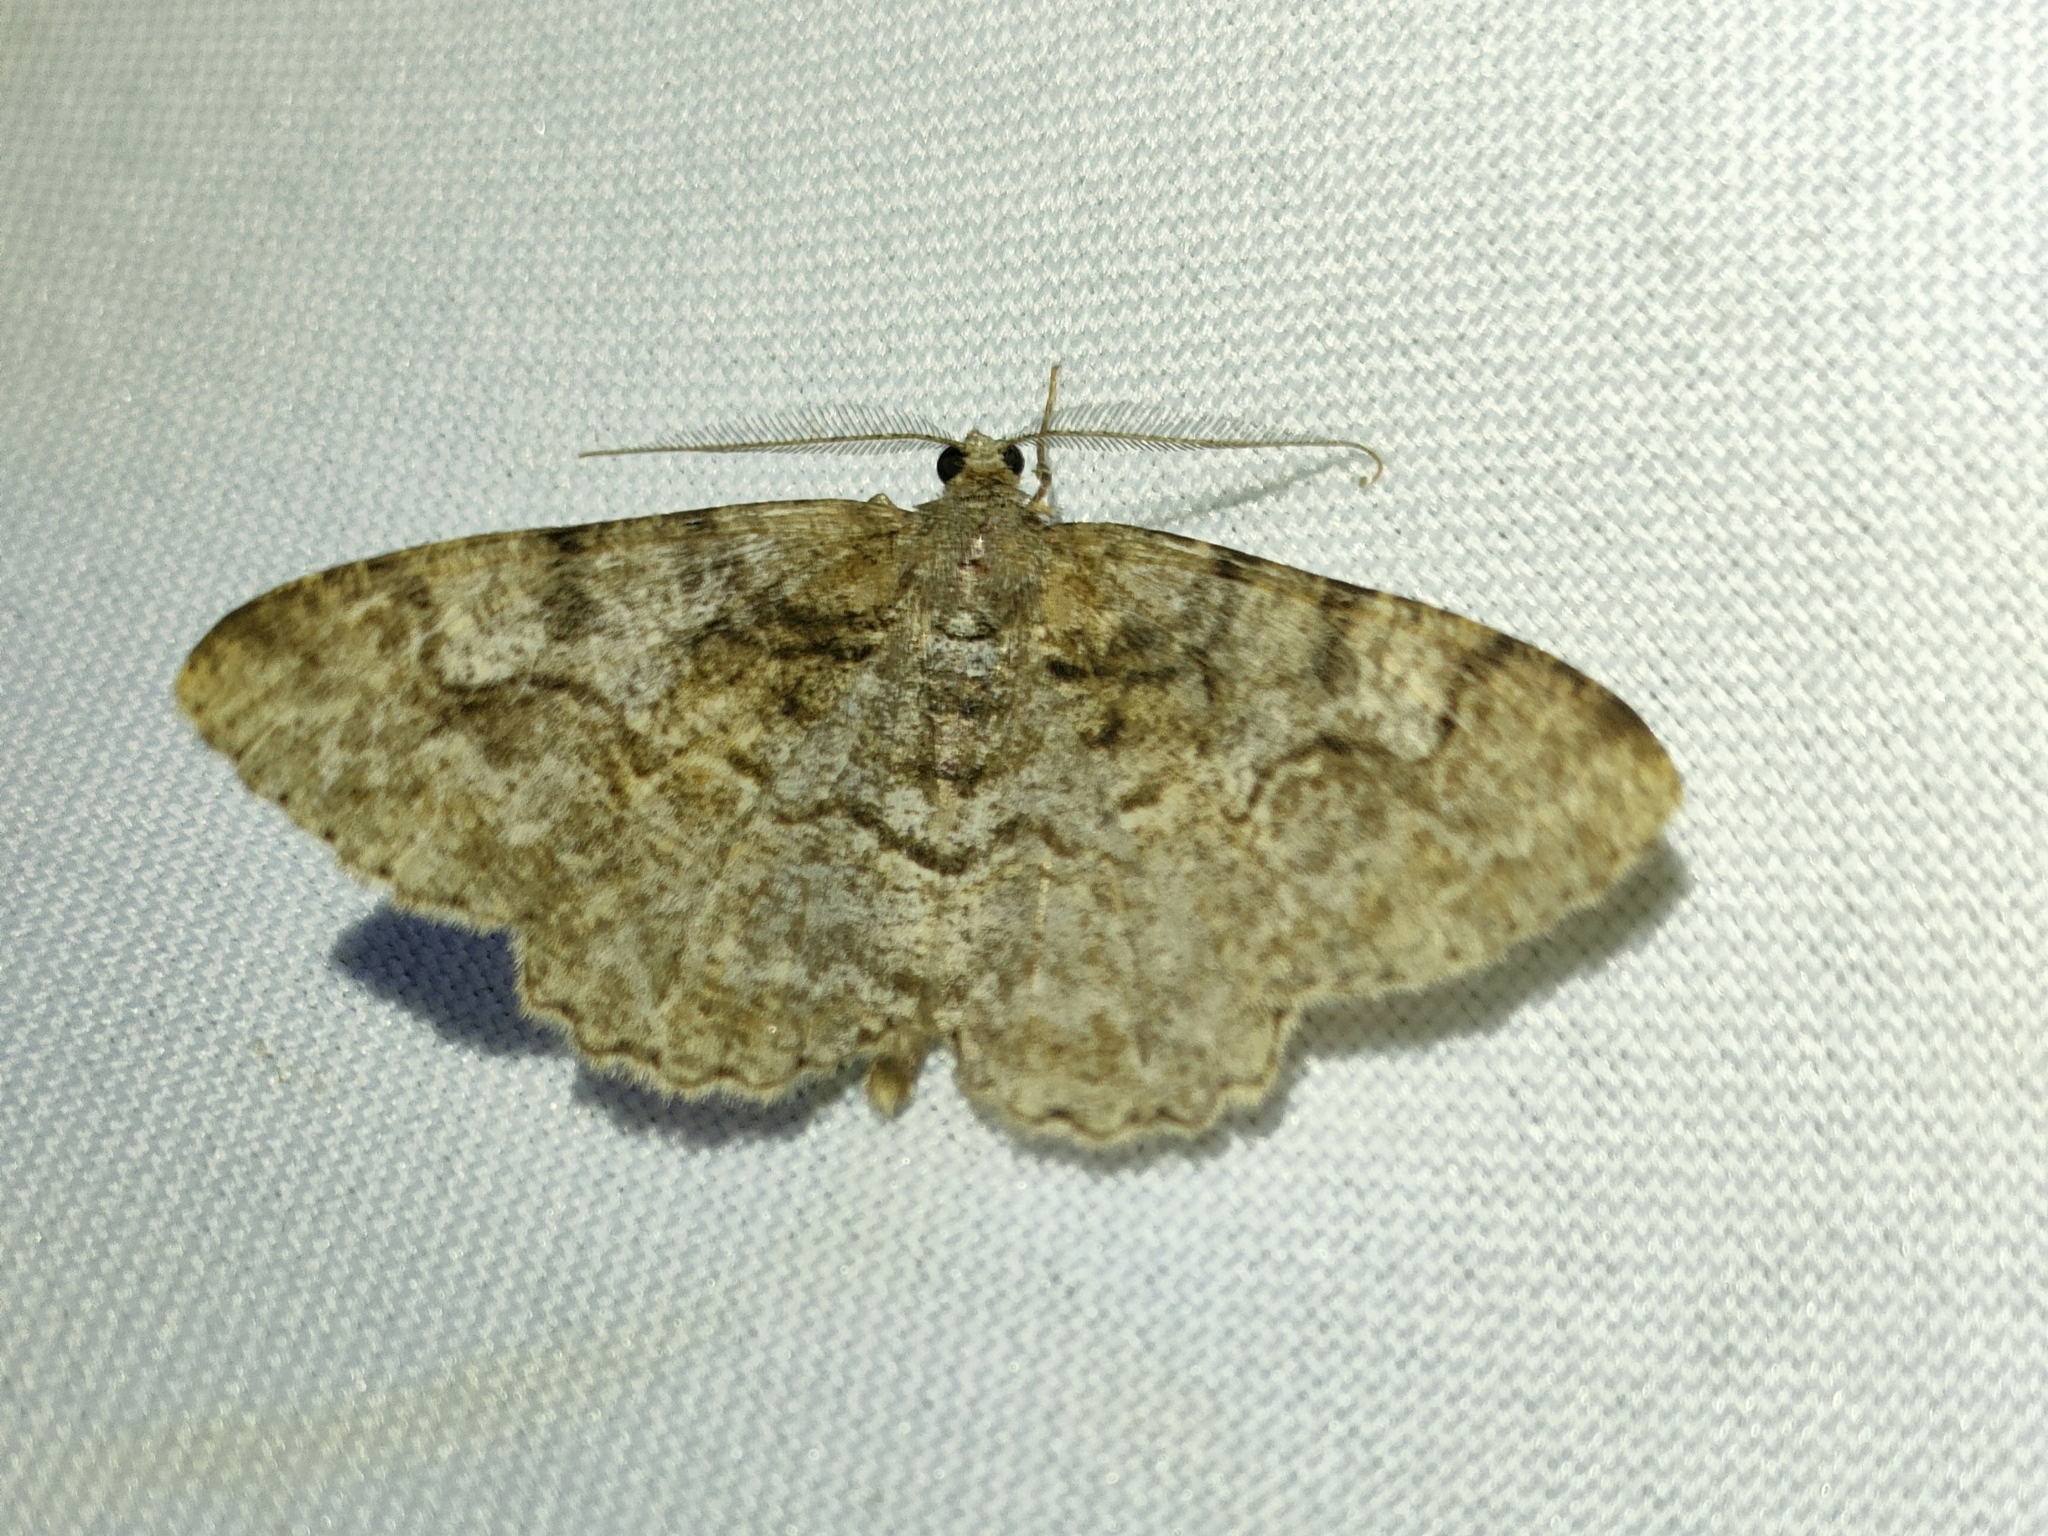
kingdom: Animalia
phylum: Arthropoda
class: Insecta
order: Lepidoptera
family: Geometridae
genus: Alcis
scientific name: Alcis repandata
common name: Mottled beauty
